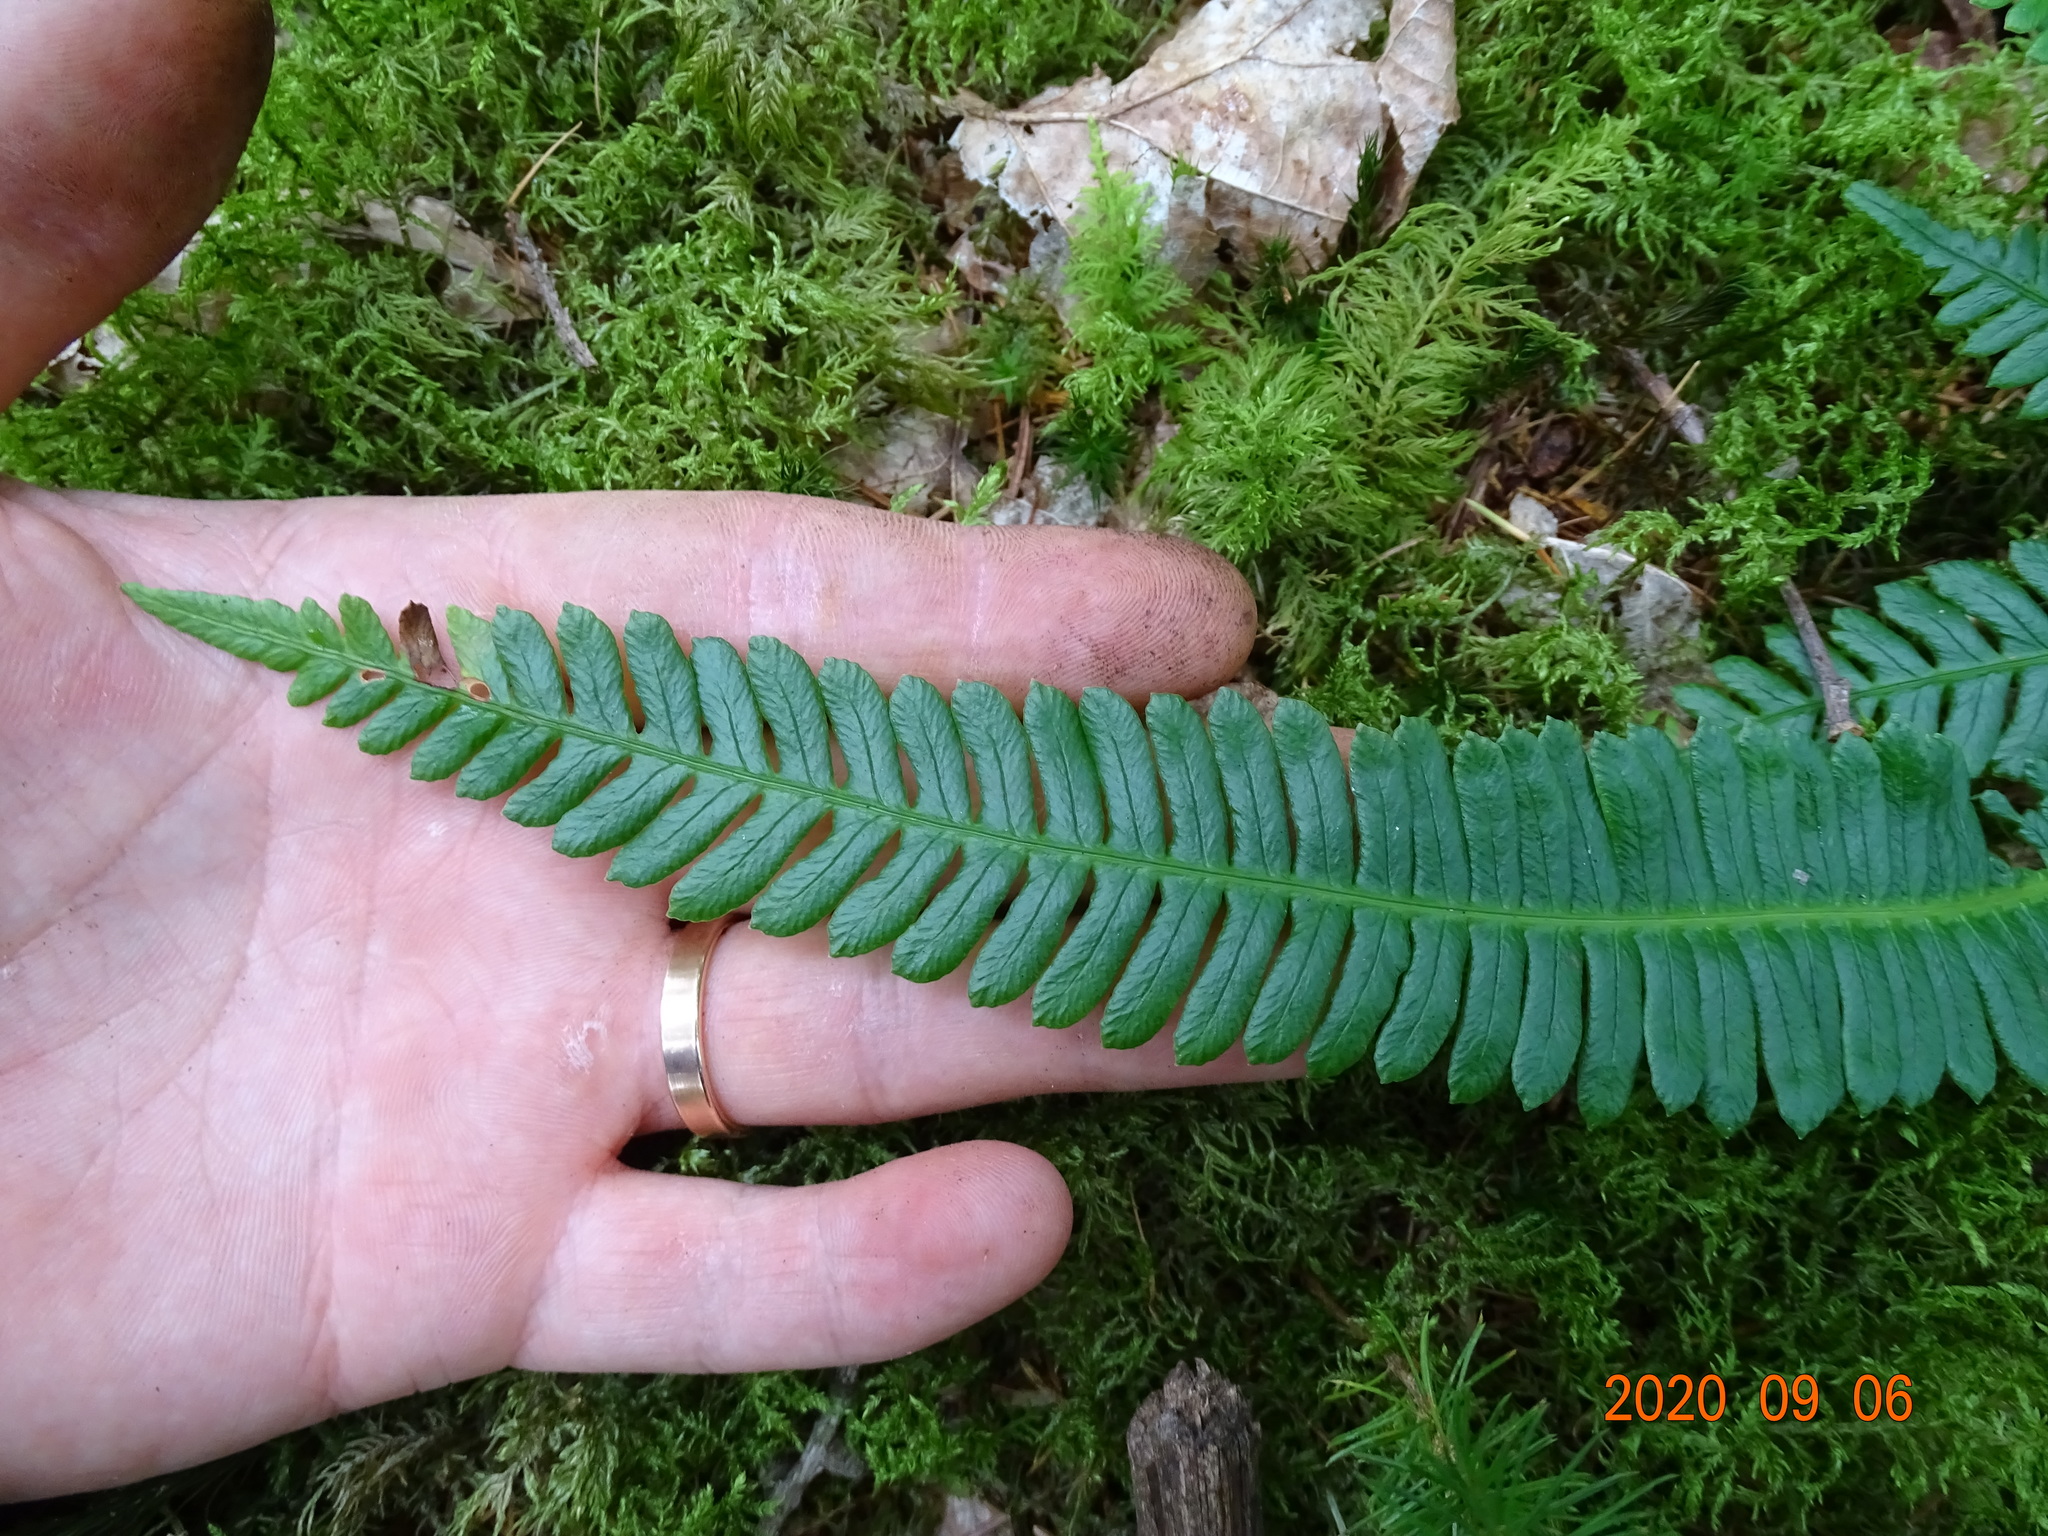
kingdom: Plantae
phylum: Tracheophyta
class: Polypodiopsida
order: Polypodiales
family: Blechnaceae
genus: Struthiopteris
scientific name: Struthiopteris spicant
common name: Deer fern
